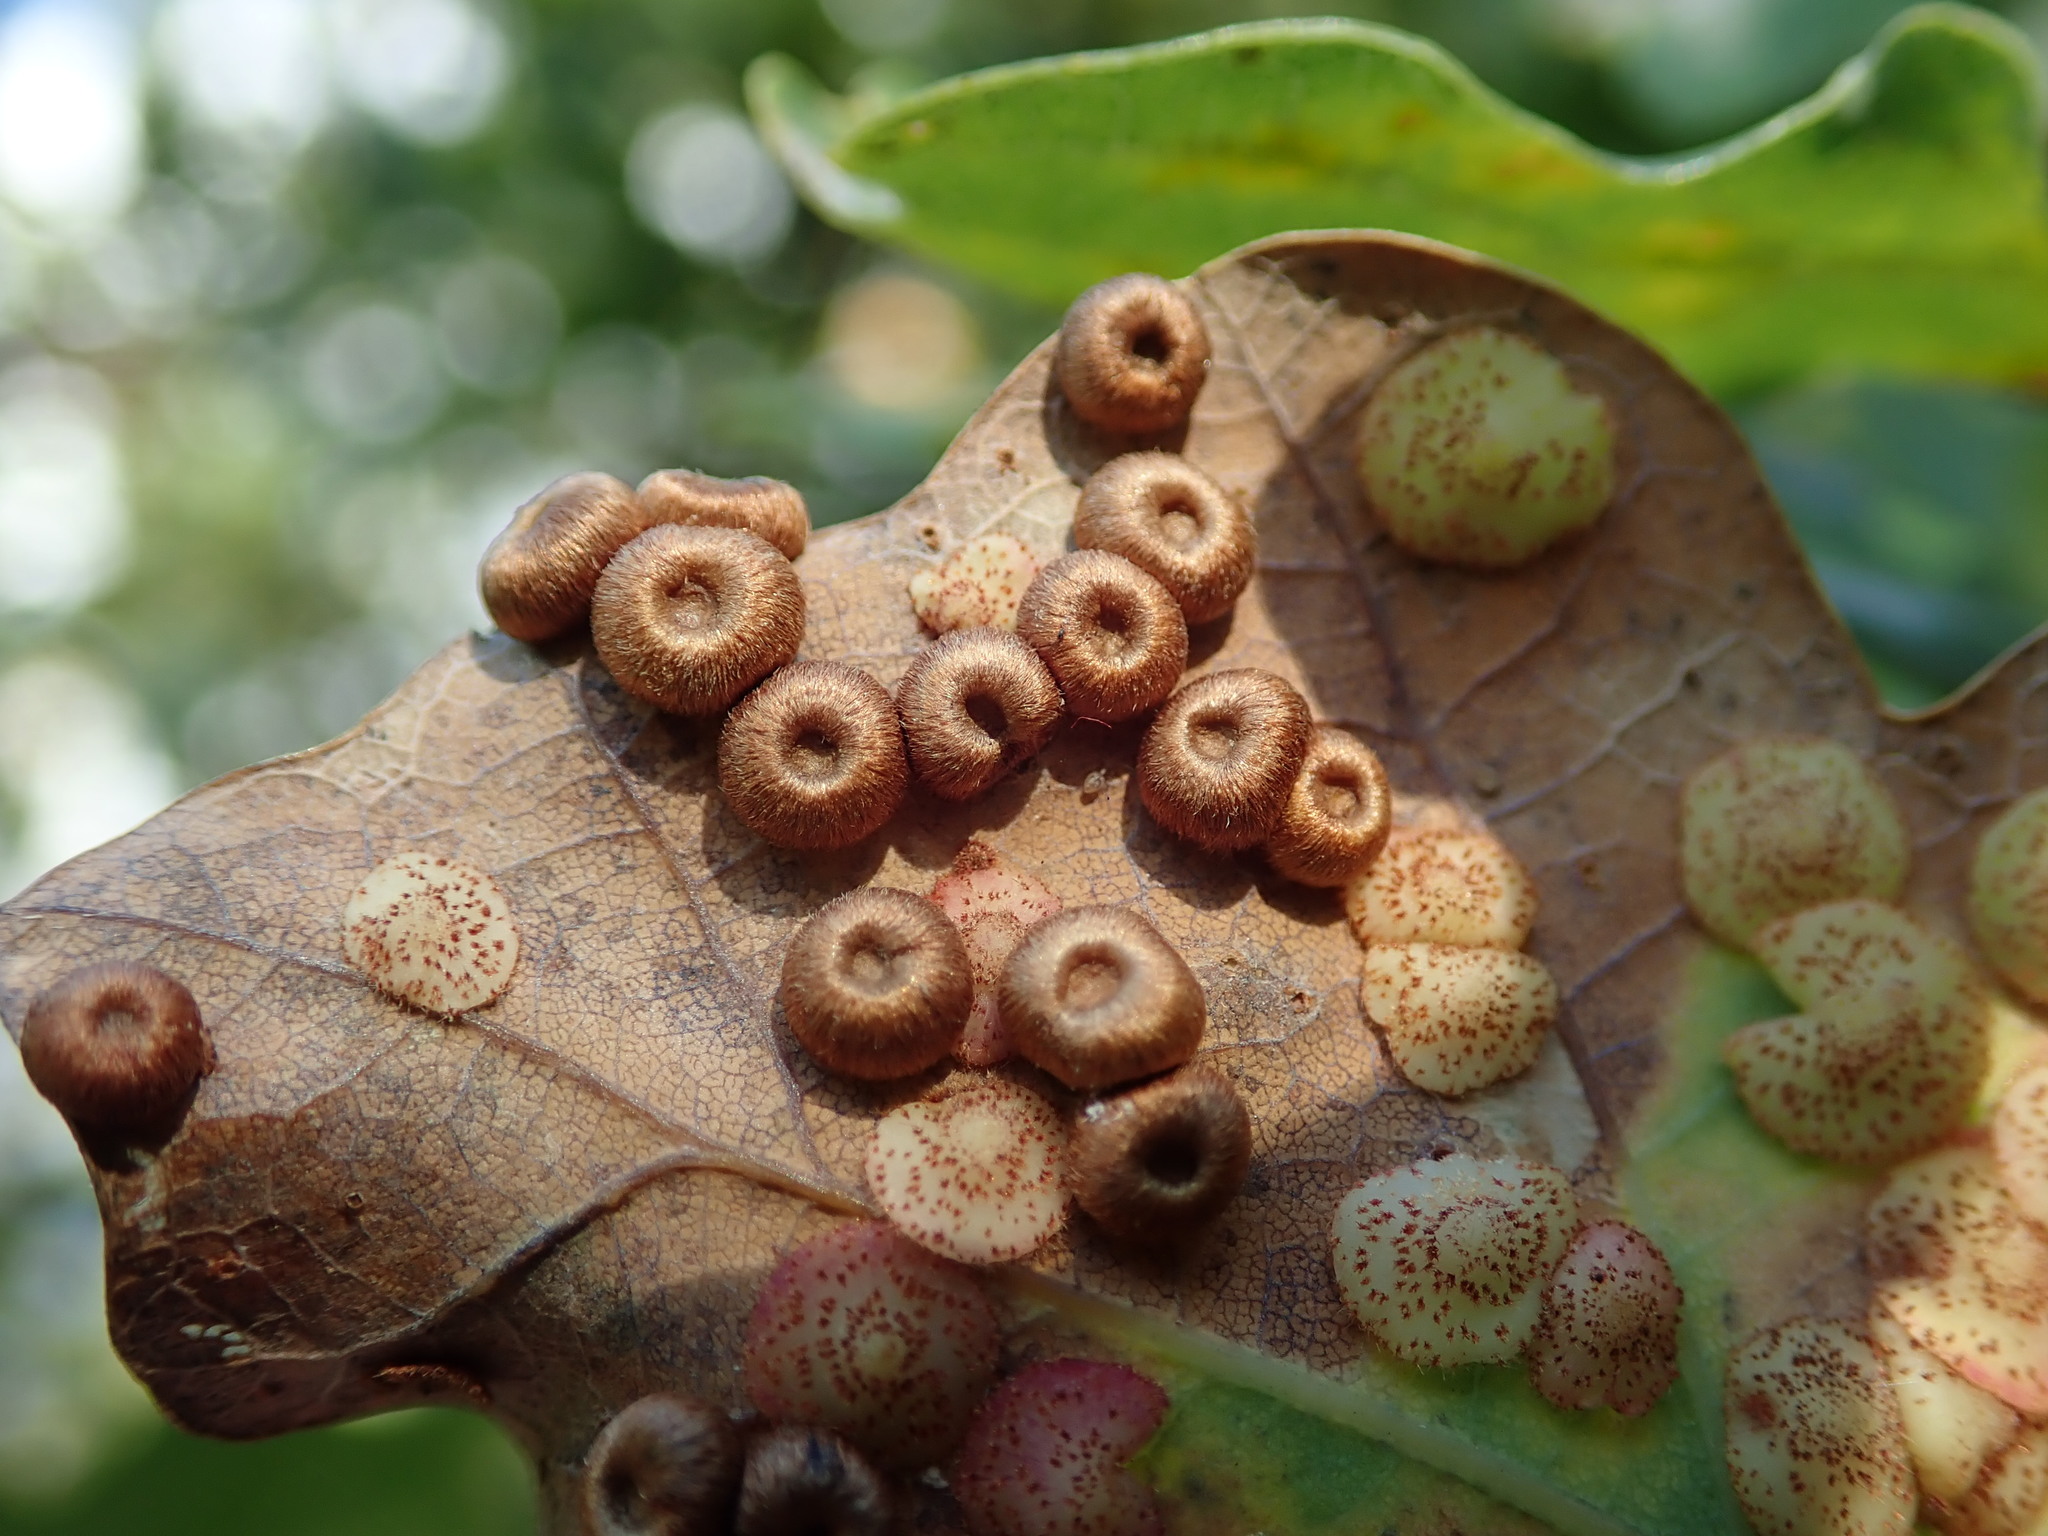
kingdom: Animalia
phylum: Arthropoda
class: Insecta
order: Hymenoptera
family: Cynipidae
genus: Neuroterus
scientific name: Neuroterus numismalis
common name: Silk-button spangle gall
